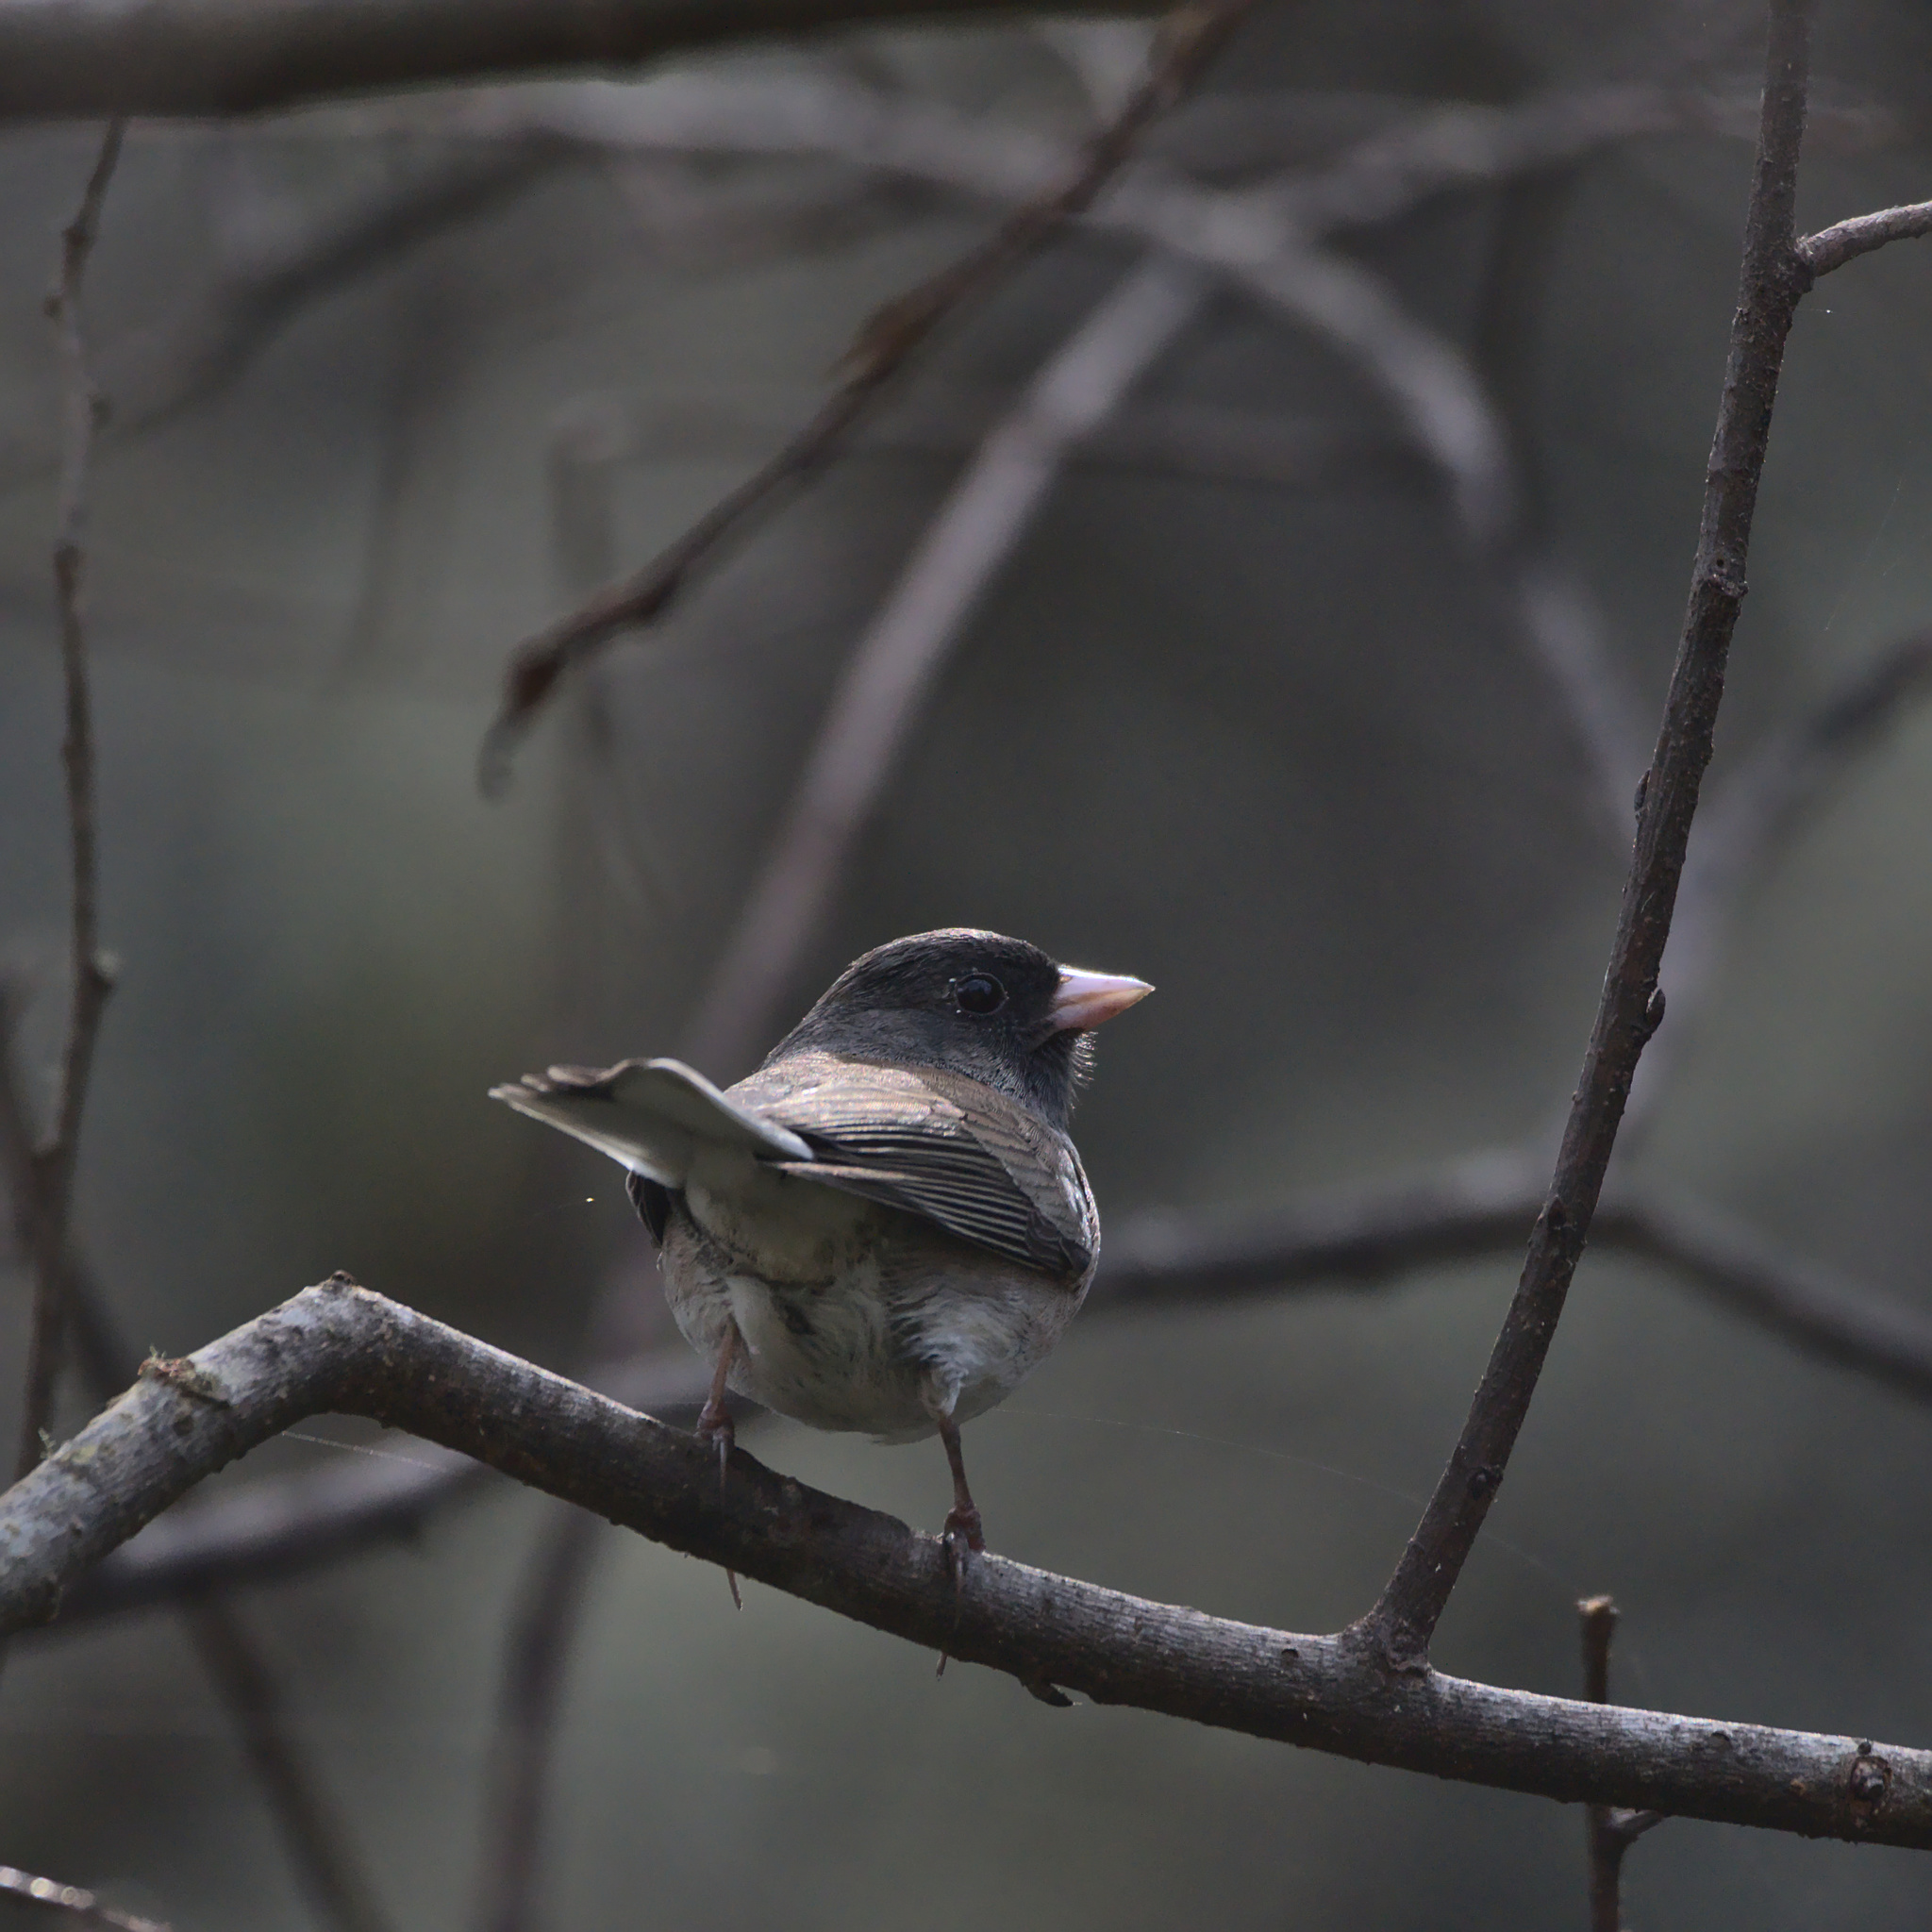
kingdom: Animalia
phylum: Chordata
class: Aves
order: Passeriformes
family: Passerellidae
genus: Junco
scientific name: Junco hyemalis
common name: Dark-eyed junco
